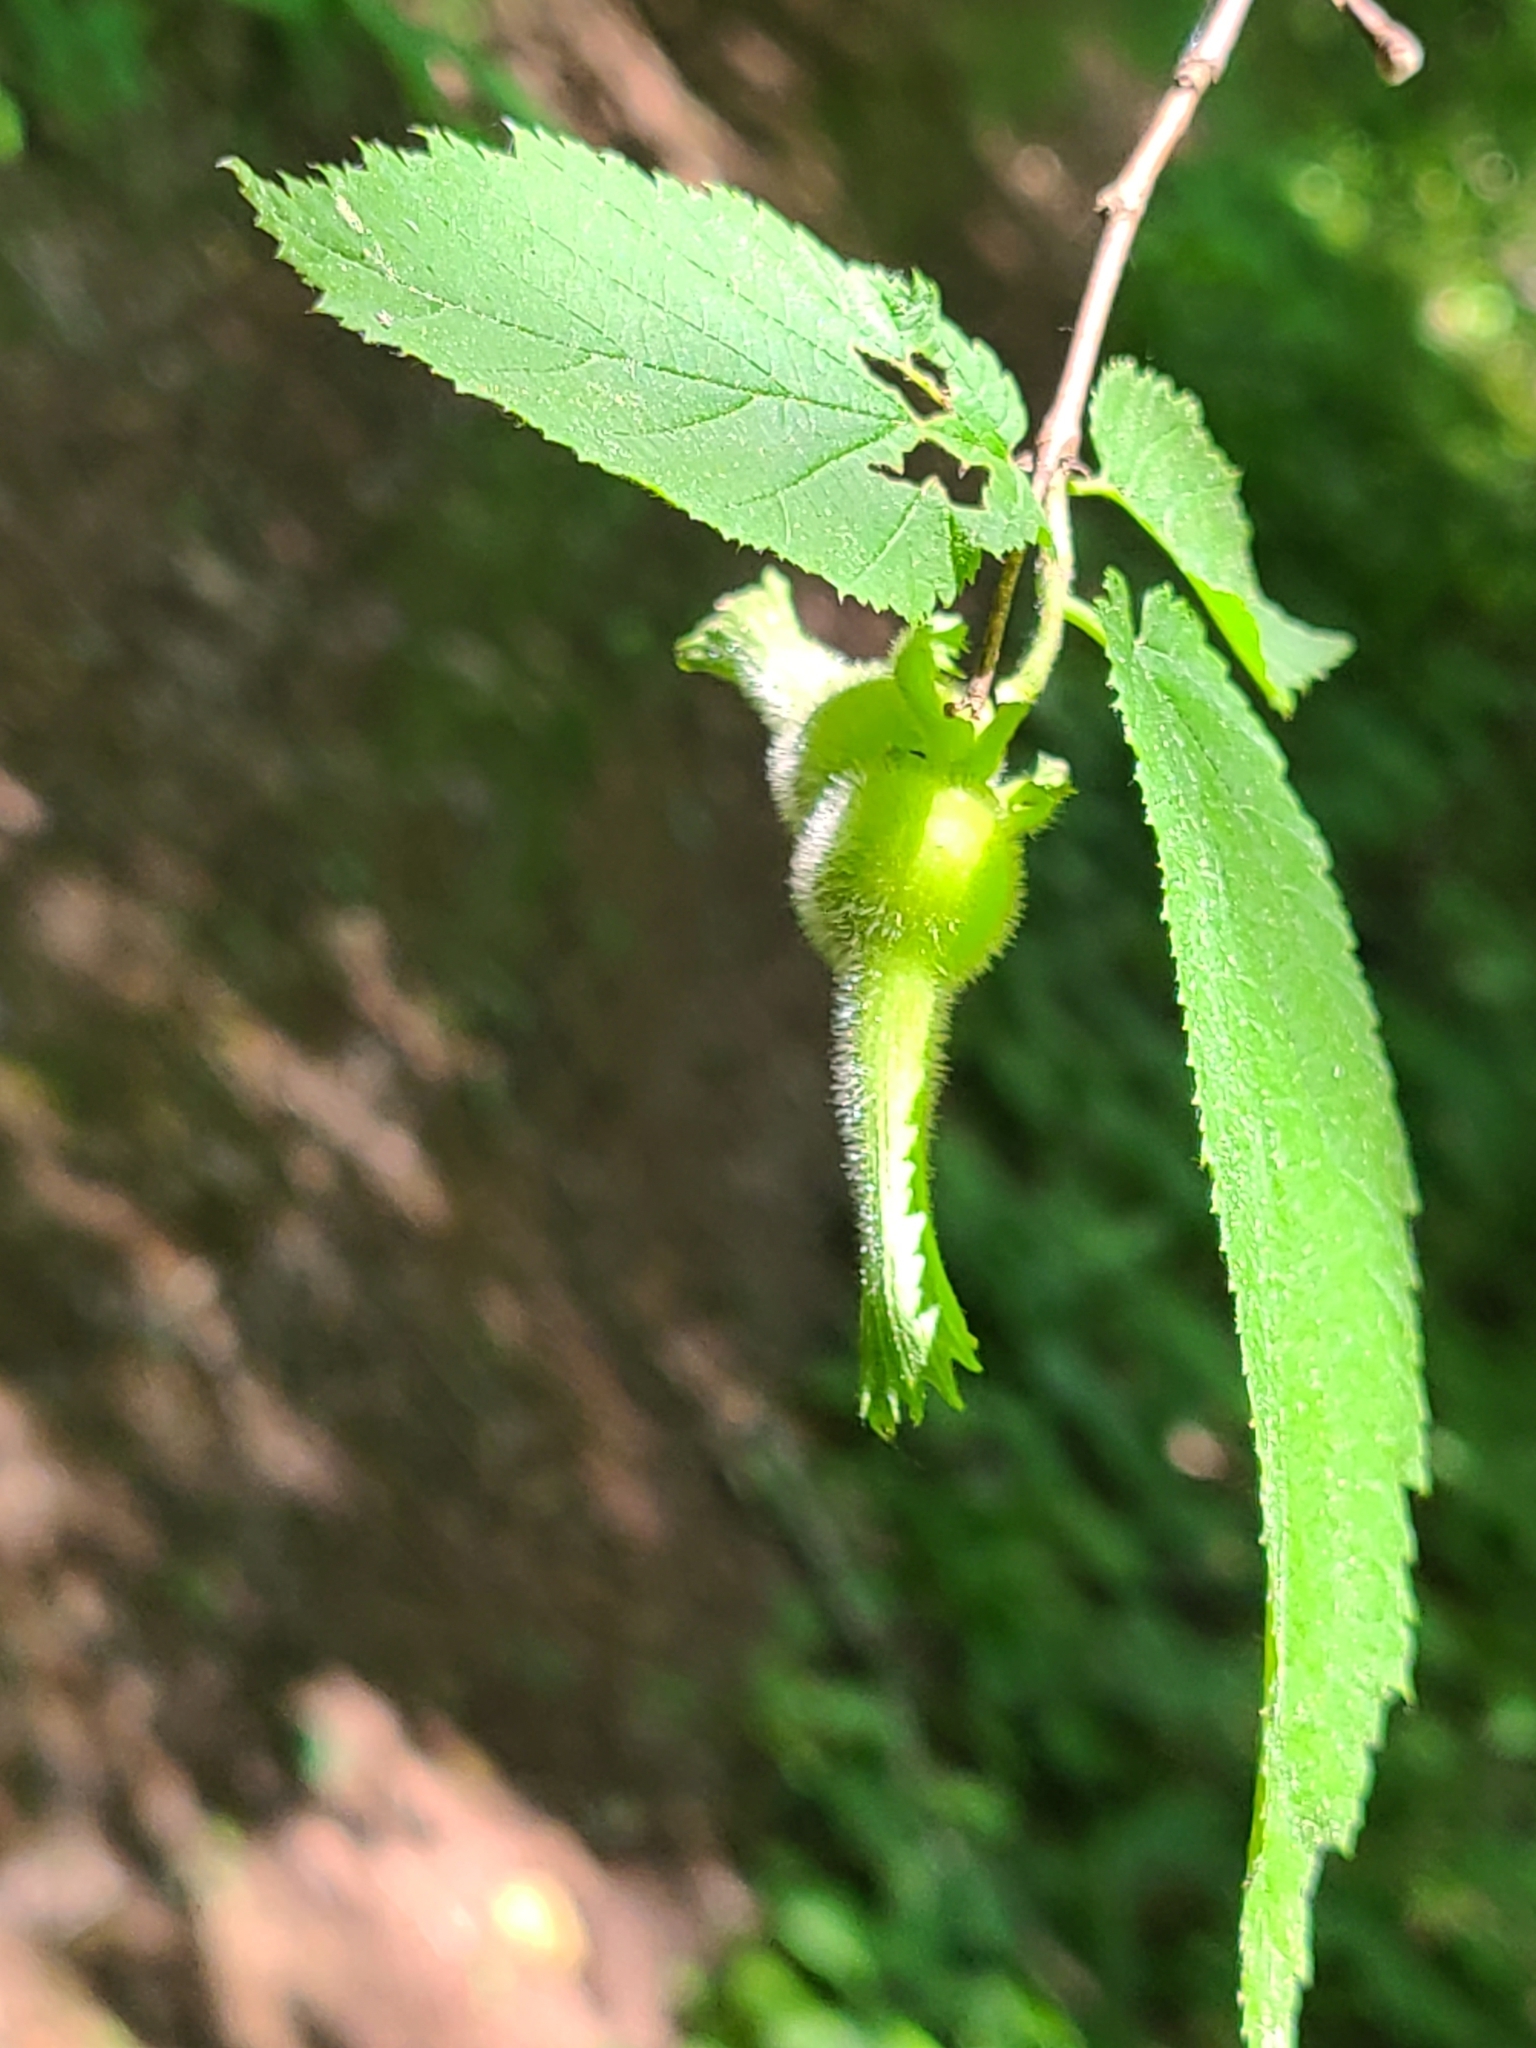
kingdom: Plantae
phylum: Tracheophyta
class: Magnoliopsida
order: Fagales
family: Betulaceae
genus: Corylus
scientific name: Corylus cornuta
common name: Beaked hazel
